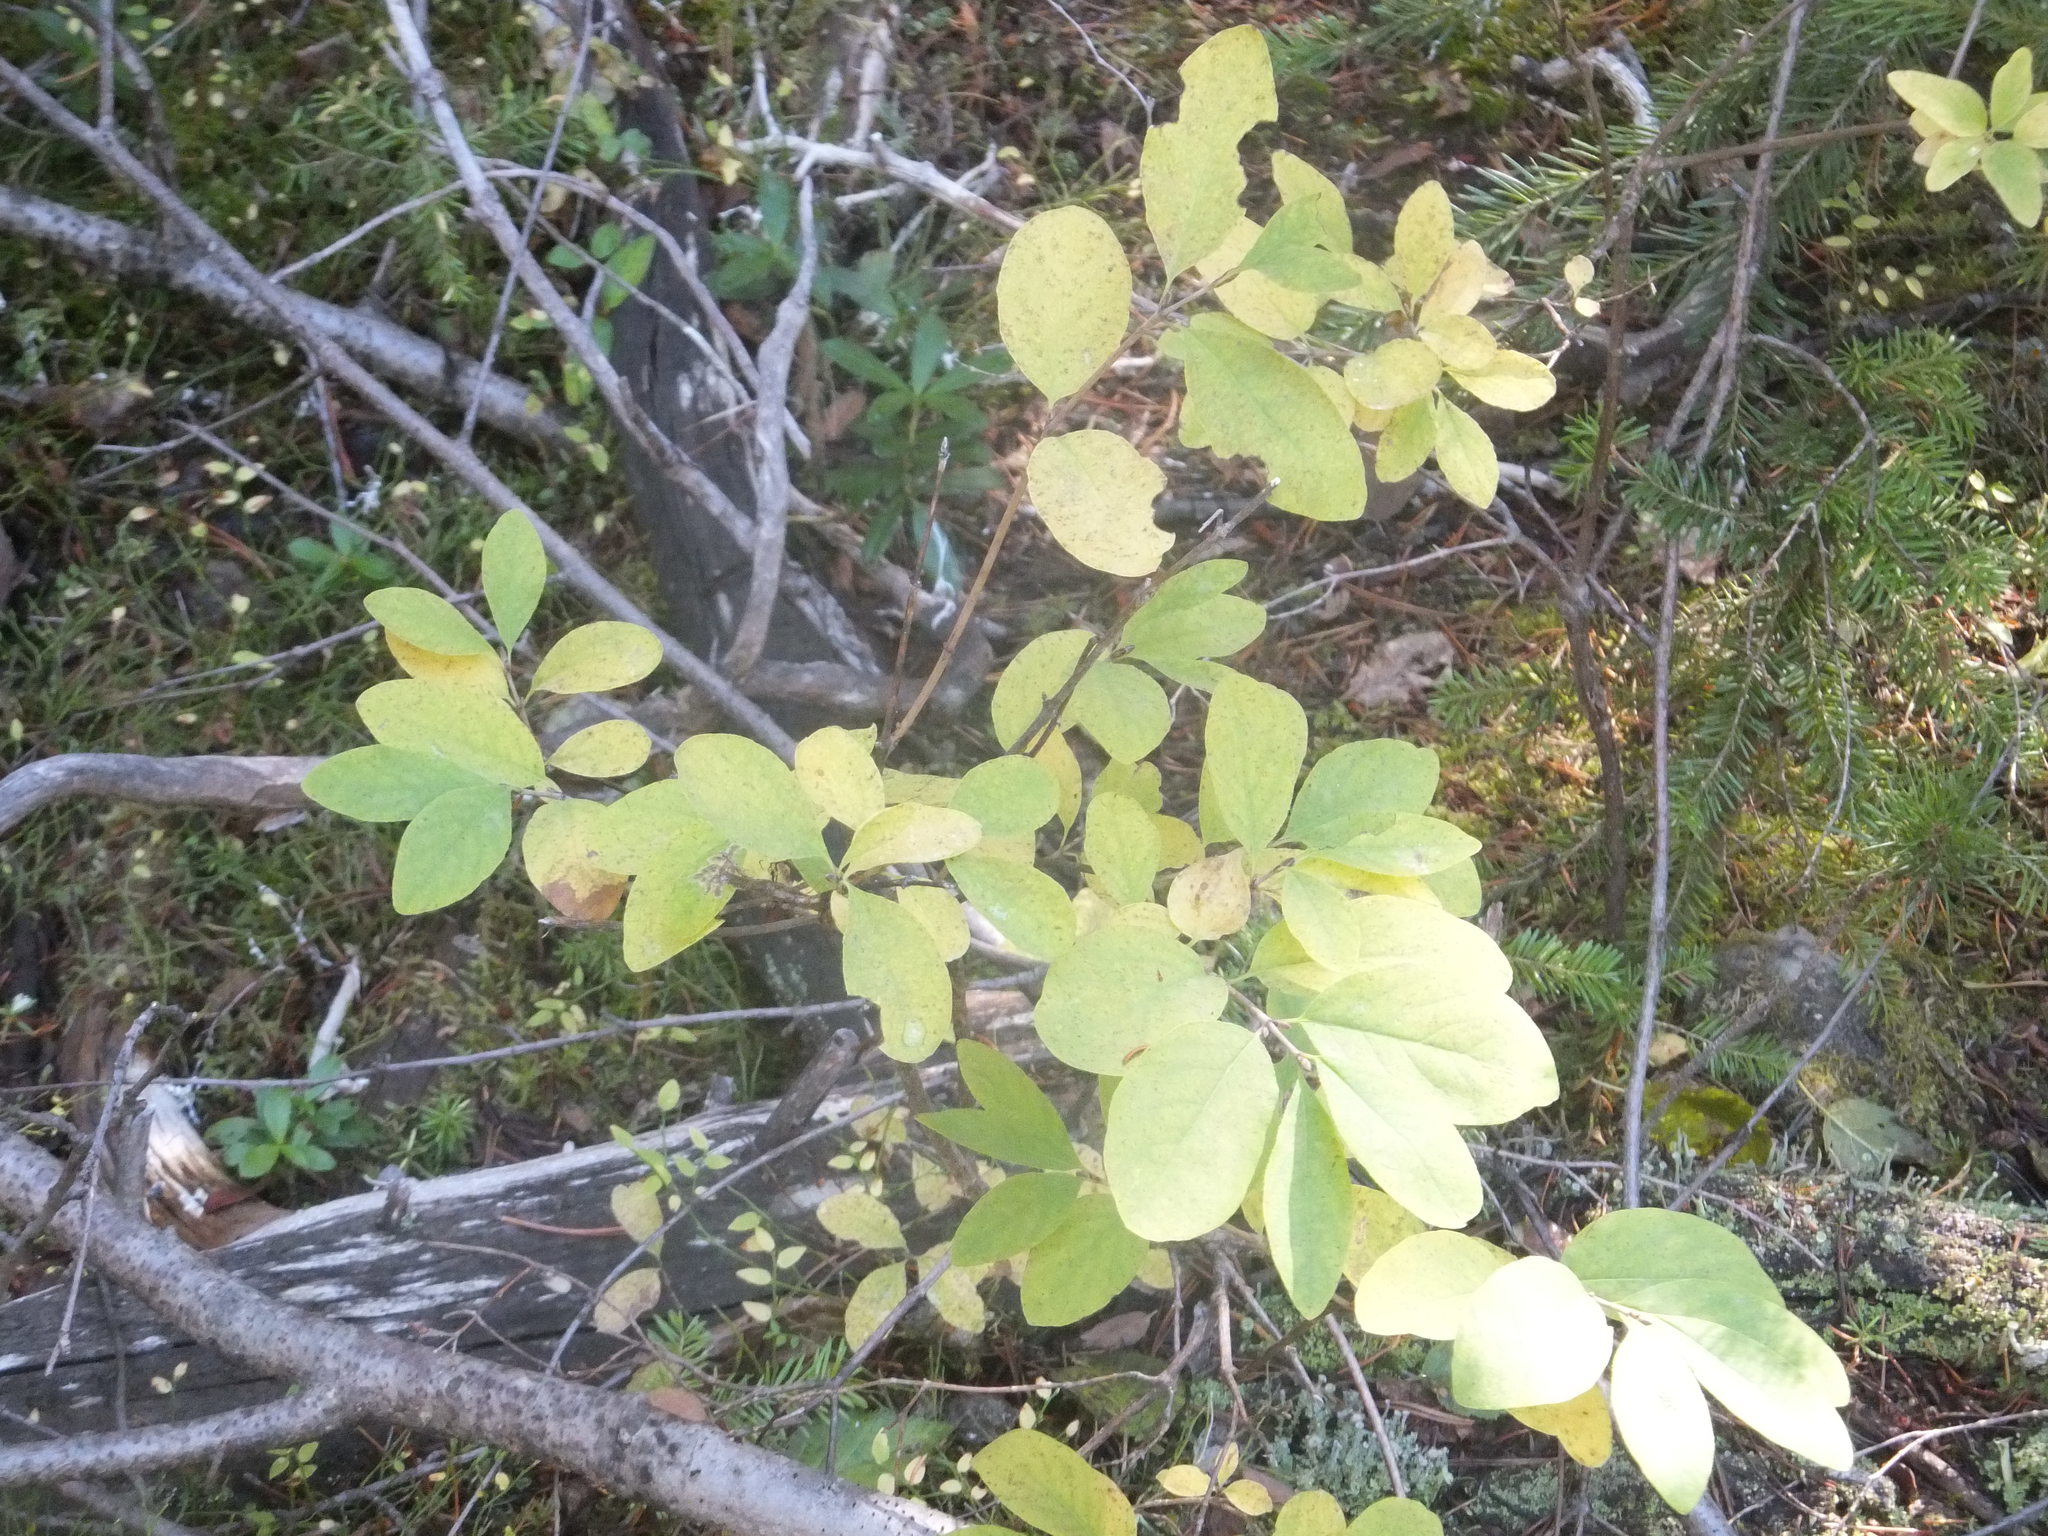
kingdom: Plantae
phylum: Tracheophyta
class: Magnoliopsida
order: Dipsacales
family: Caprifoliaceae
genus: Lonicera
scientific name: Lonicera utahensis
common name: Utah honeysuckle
